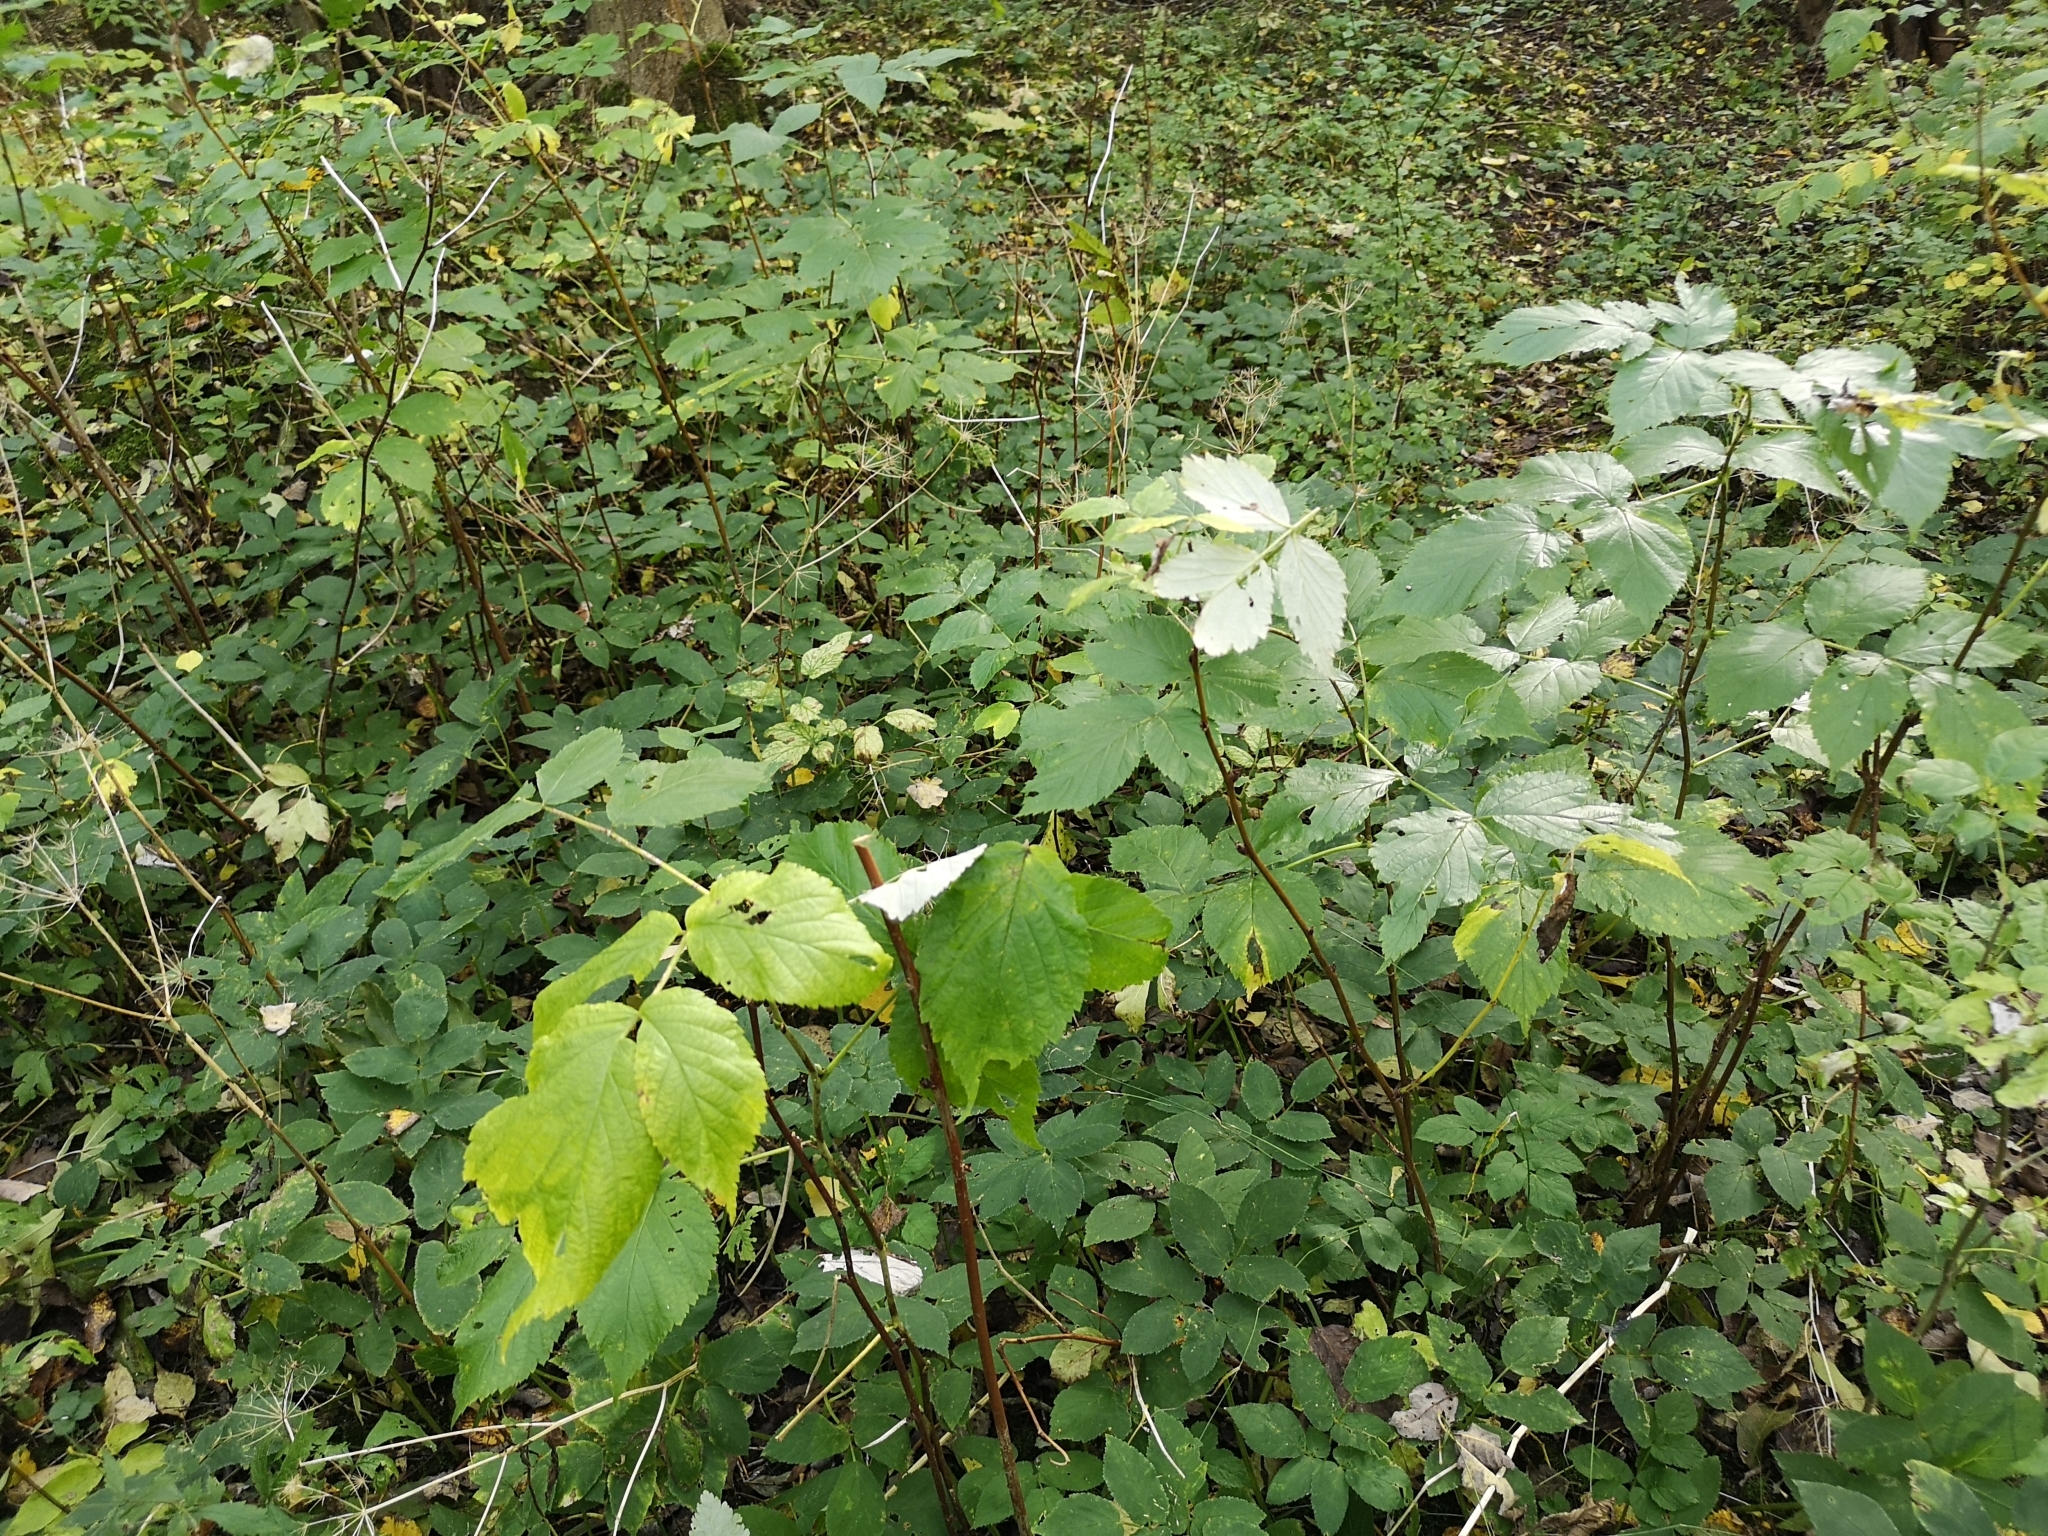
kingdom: Plantae
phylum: Tracheophyta
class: Magnoliopsida
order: Rosales
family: Rosaceae
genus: Rubus
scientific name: Rubus idaeus
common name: Raspberry
